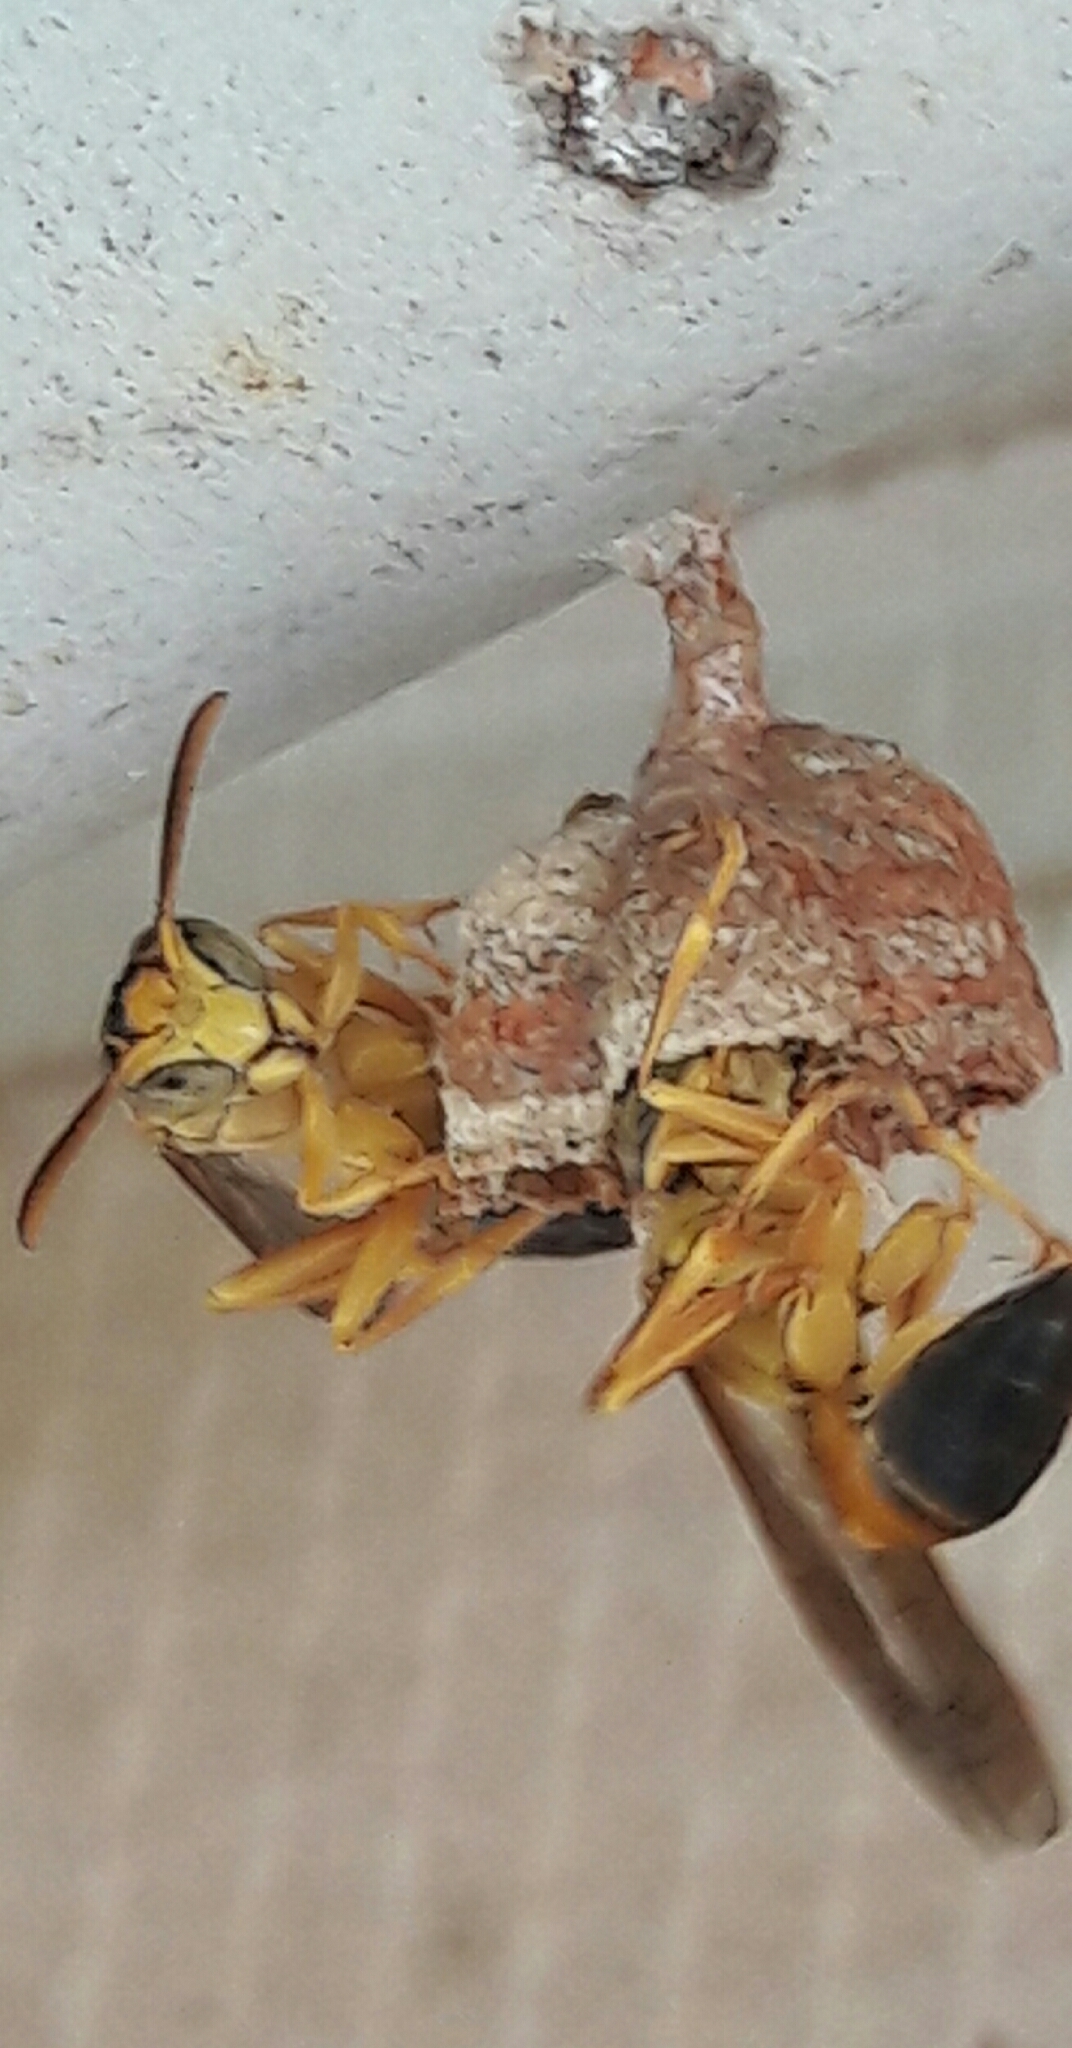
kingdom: Animalia
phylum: Arthropoda
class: Insecta
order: Hymenoptera
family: Vespidae
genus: Mischocyttarus
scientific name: Mischocyttarus cerberus
